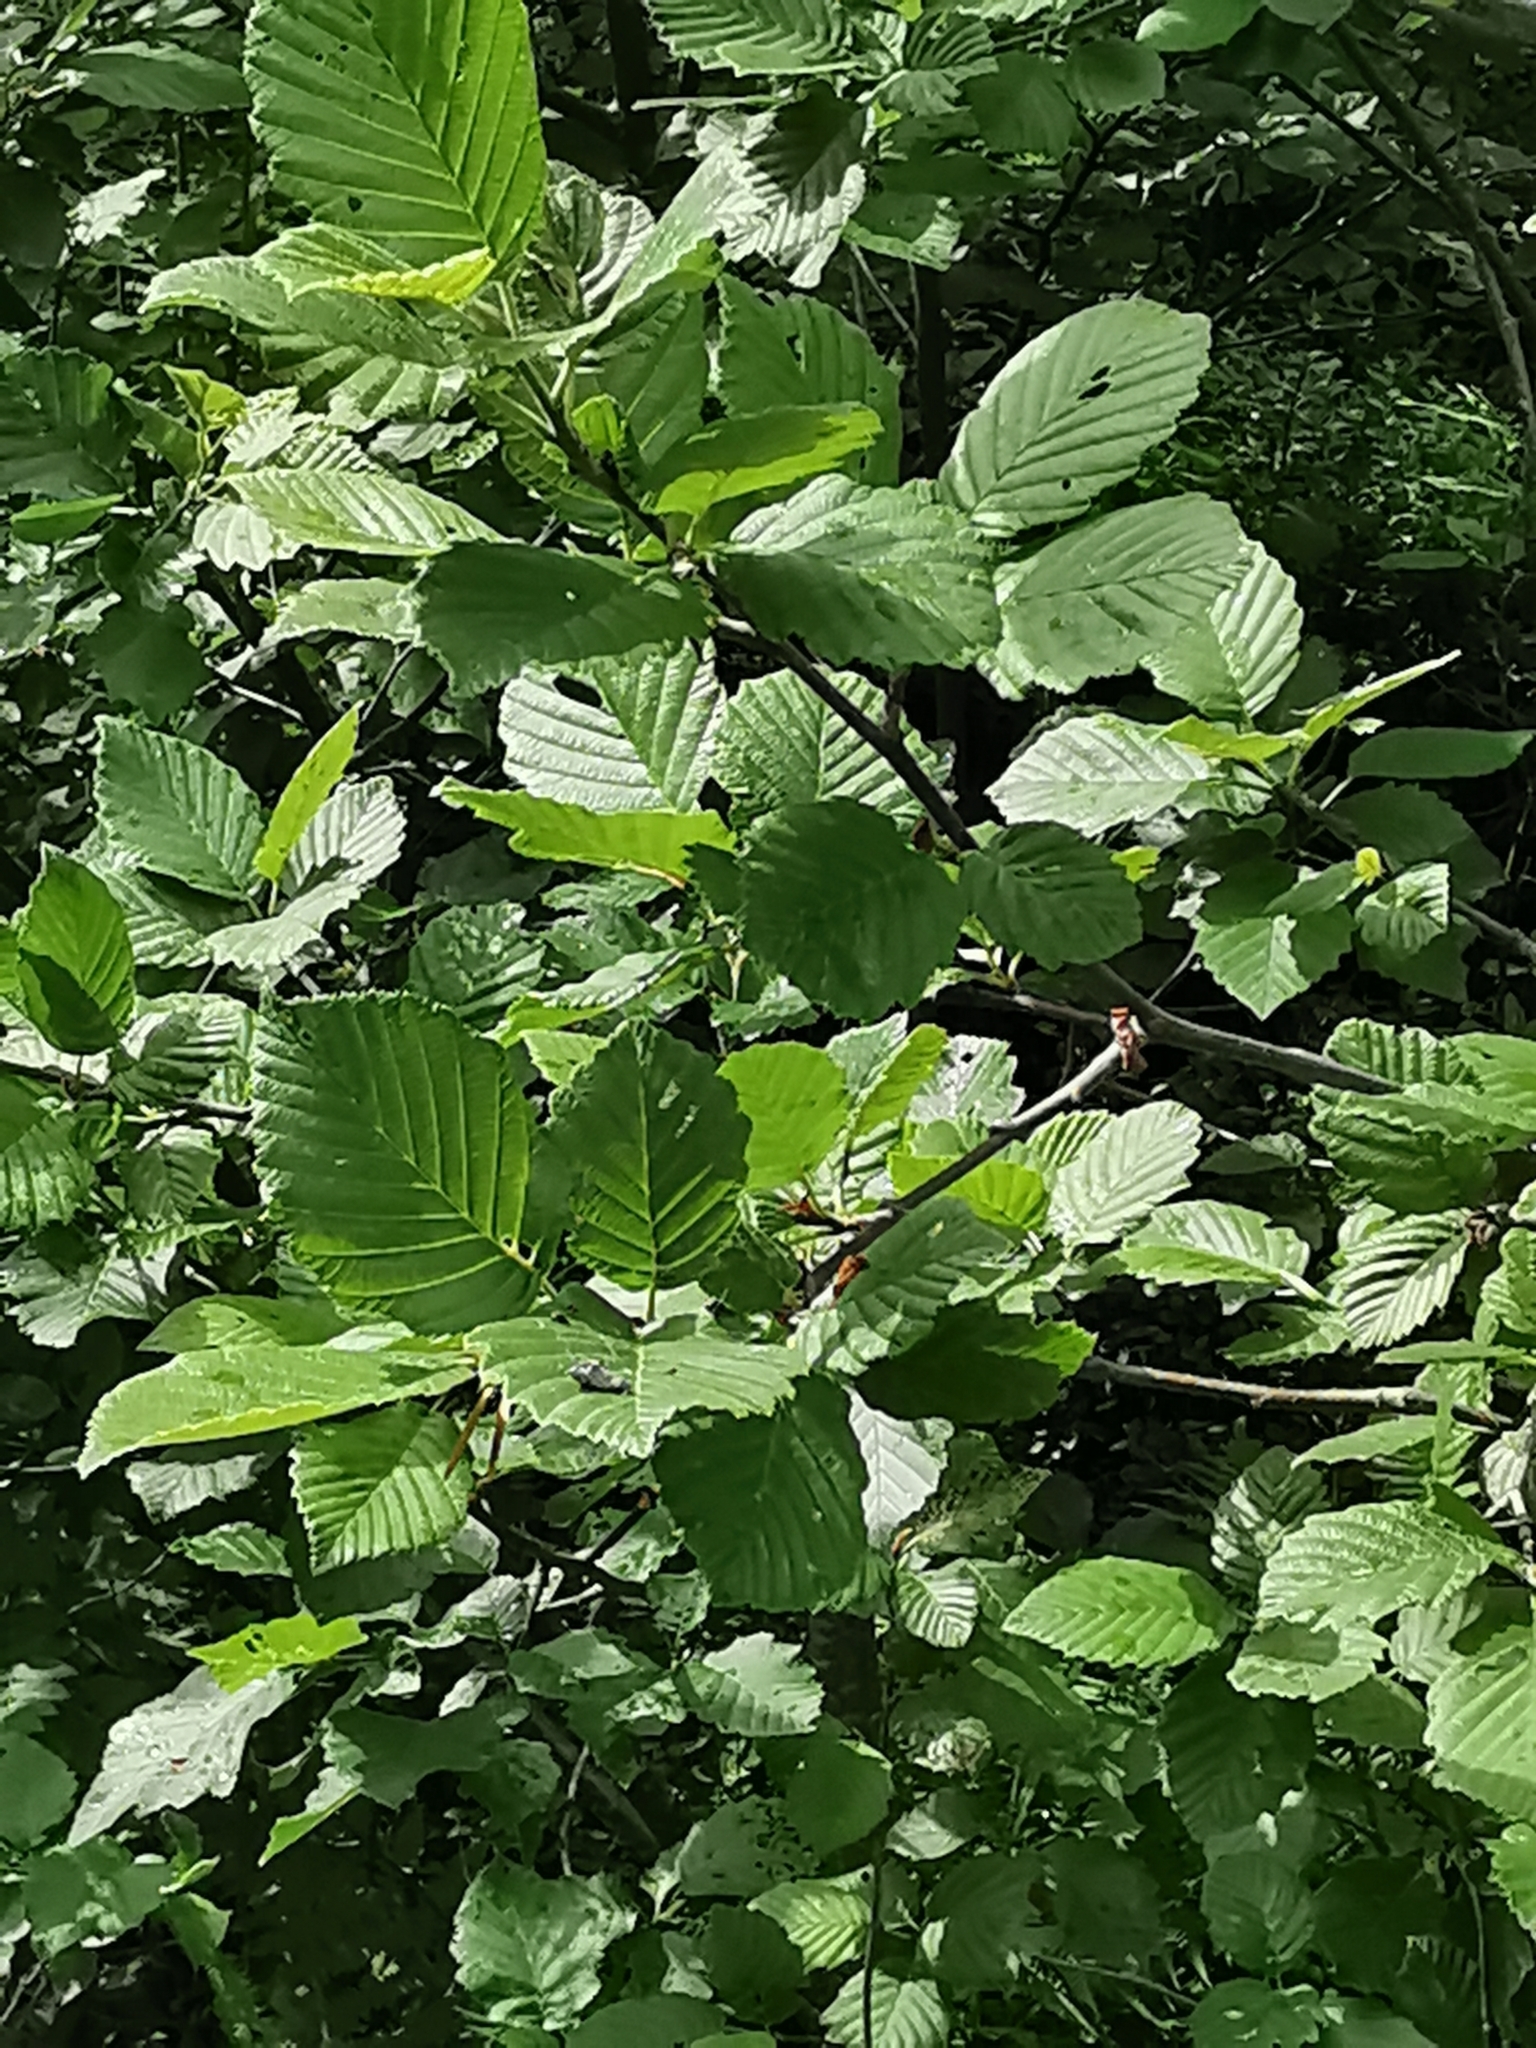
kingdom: Plantae
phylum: Tracheophyta
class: Magnoliopsida
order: Fagales
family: Betulaceae
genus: Alnus
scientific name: Alnus incana
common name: Grey alder
